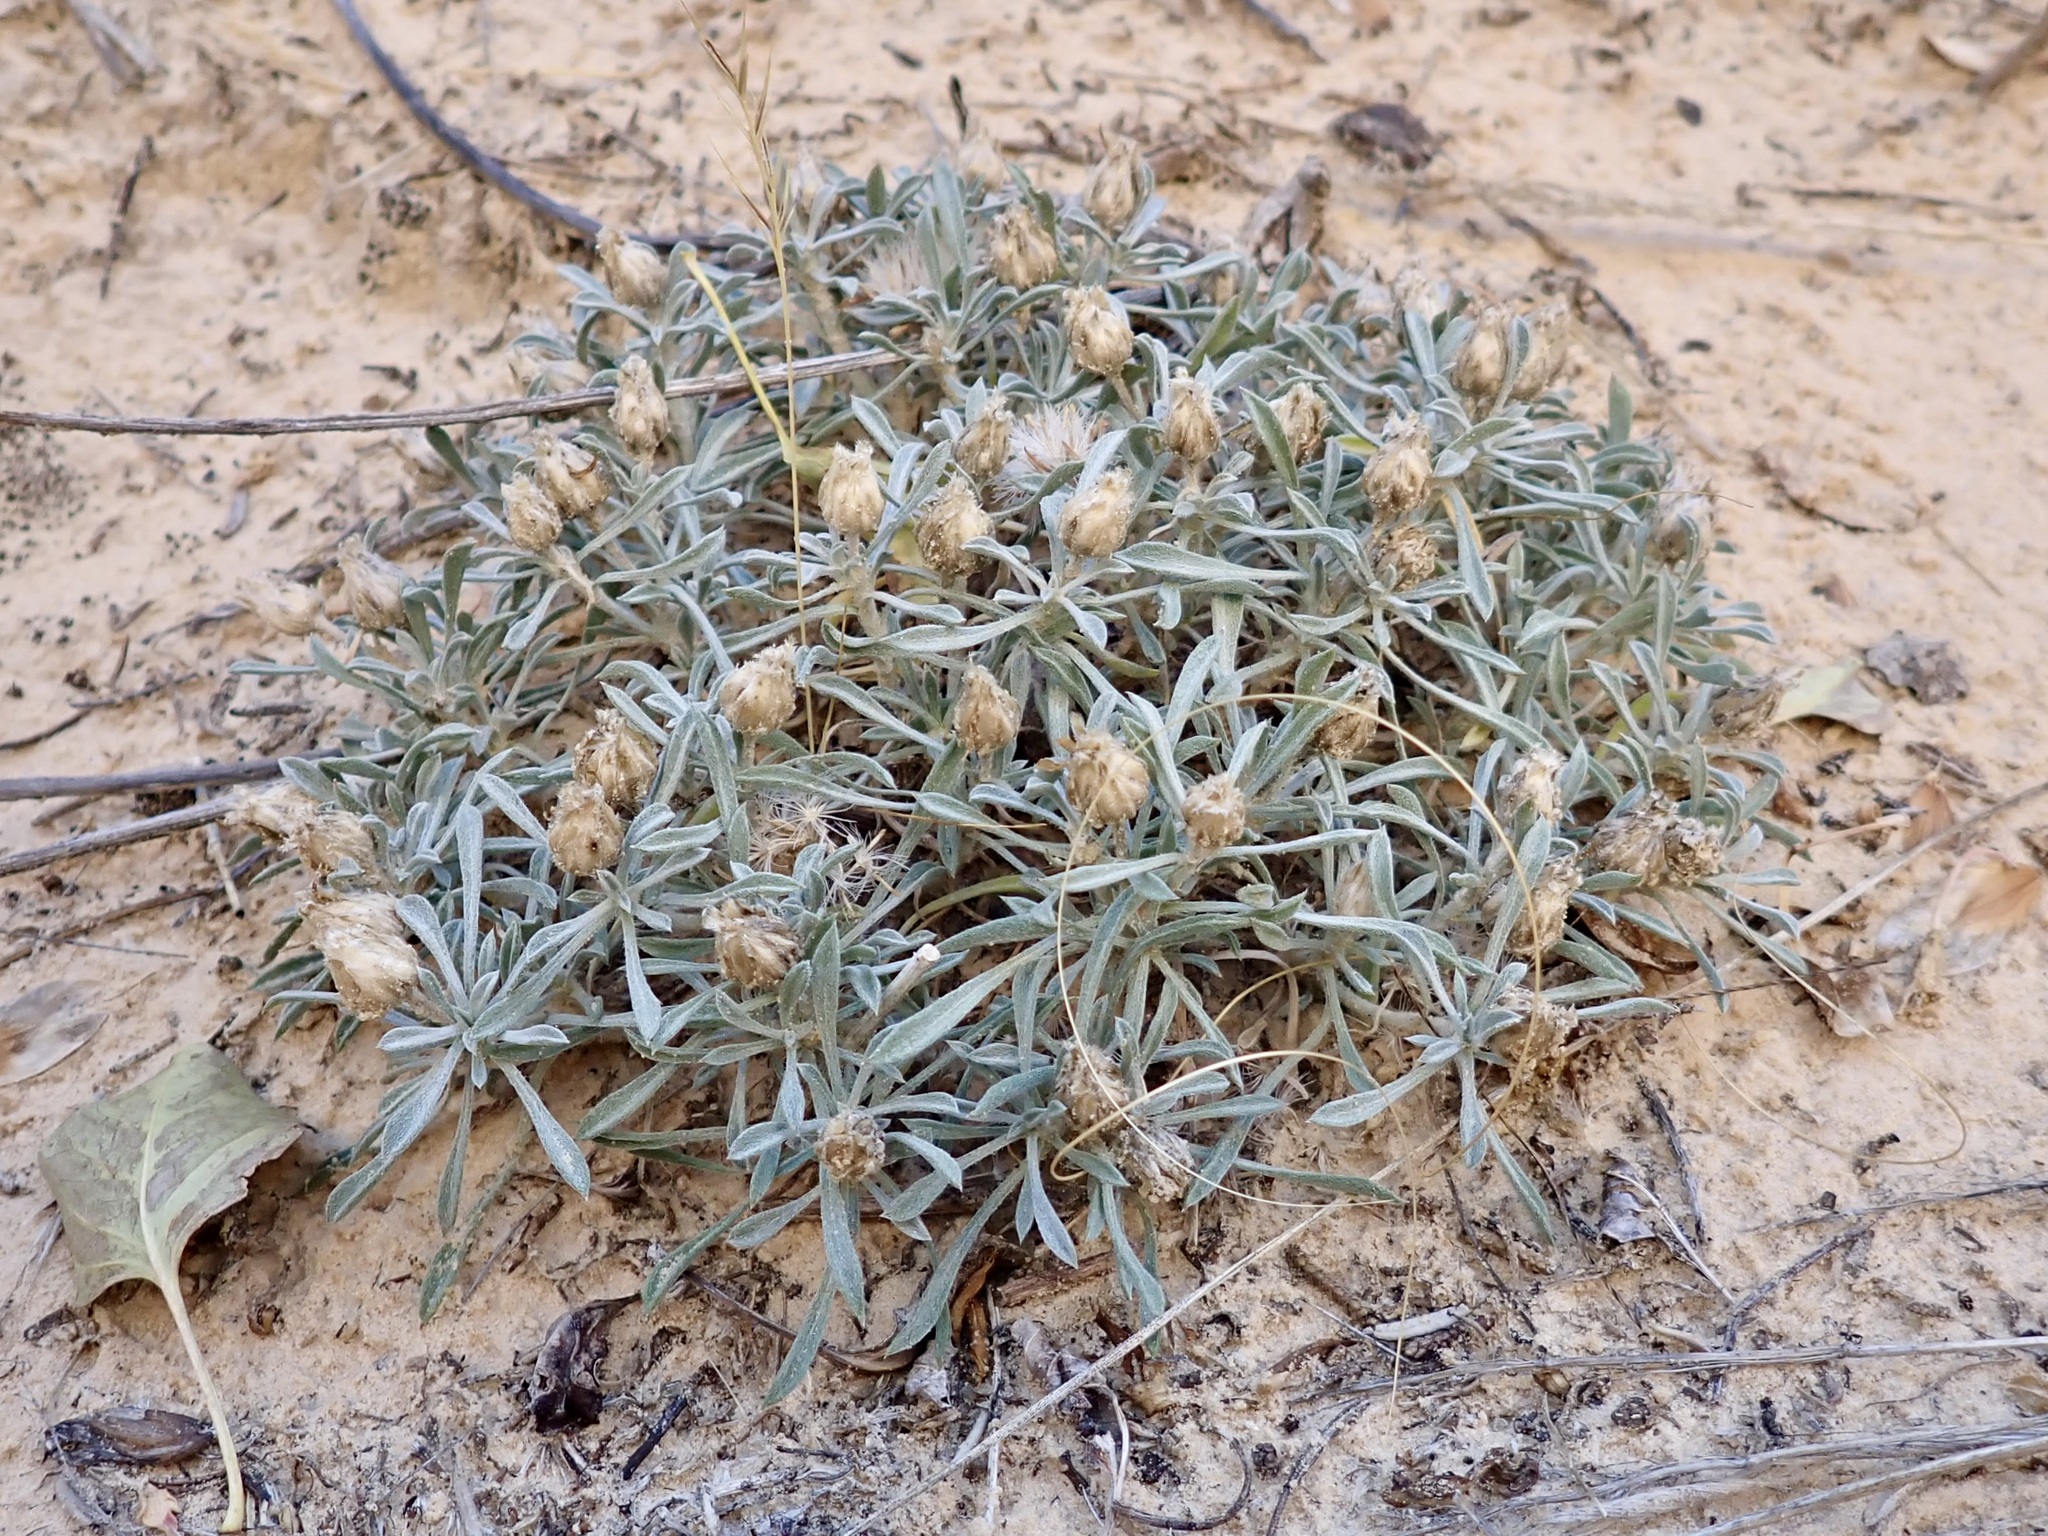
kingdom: Plantae
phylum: Tracheophyta
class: Magnoliopsida
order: Asterales
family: Asteraceae
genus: Townsendia
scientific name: Townsendia incana
